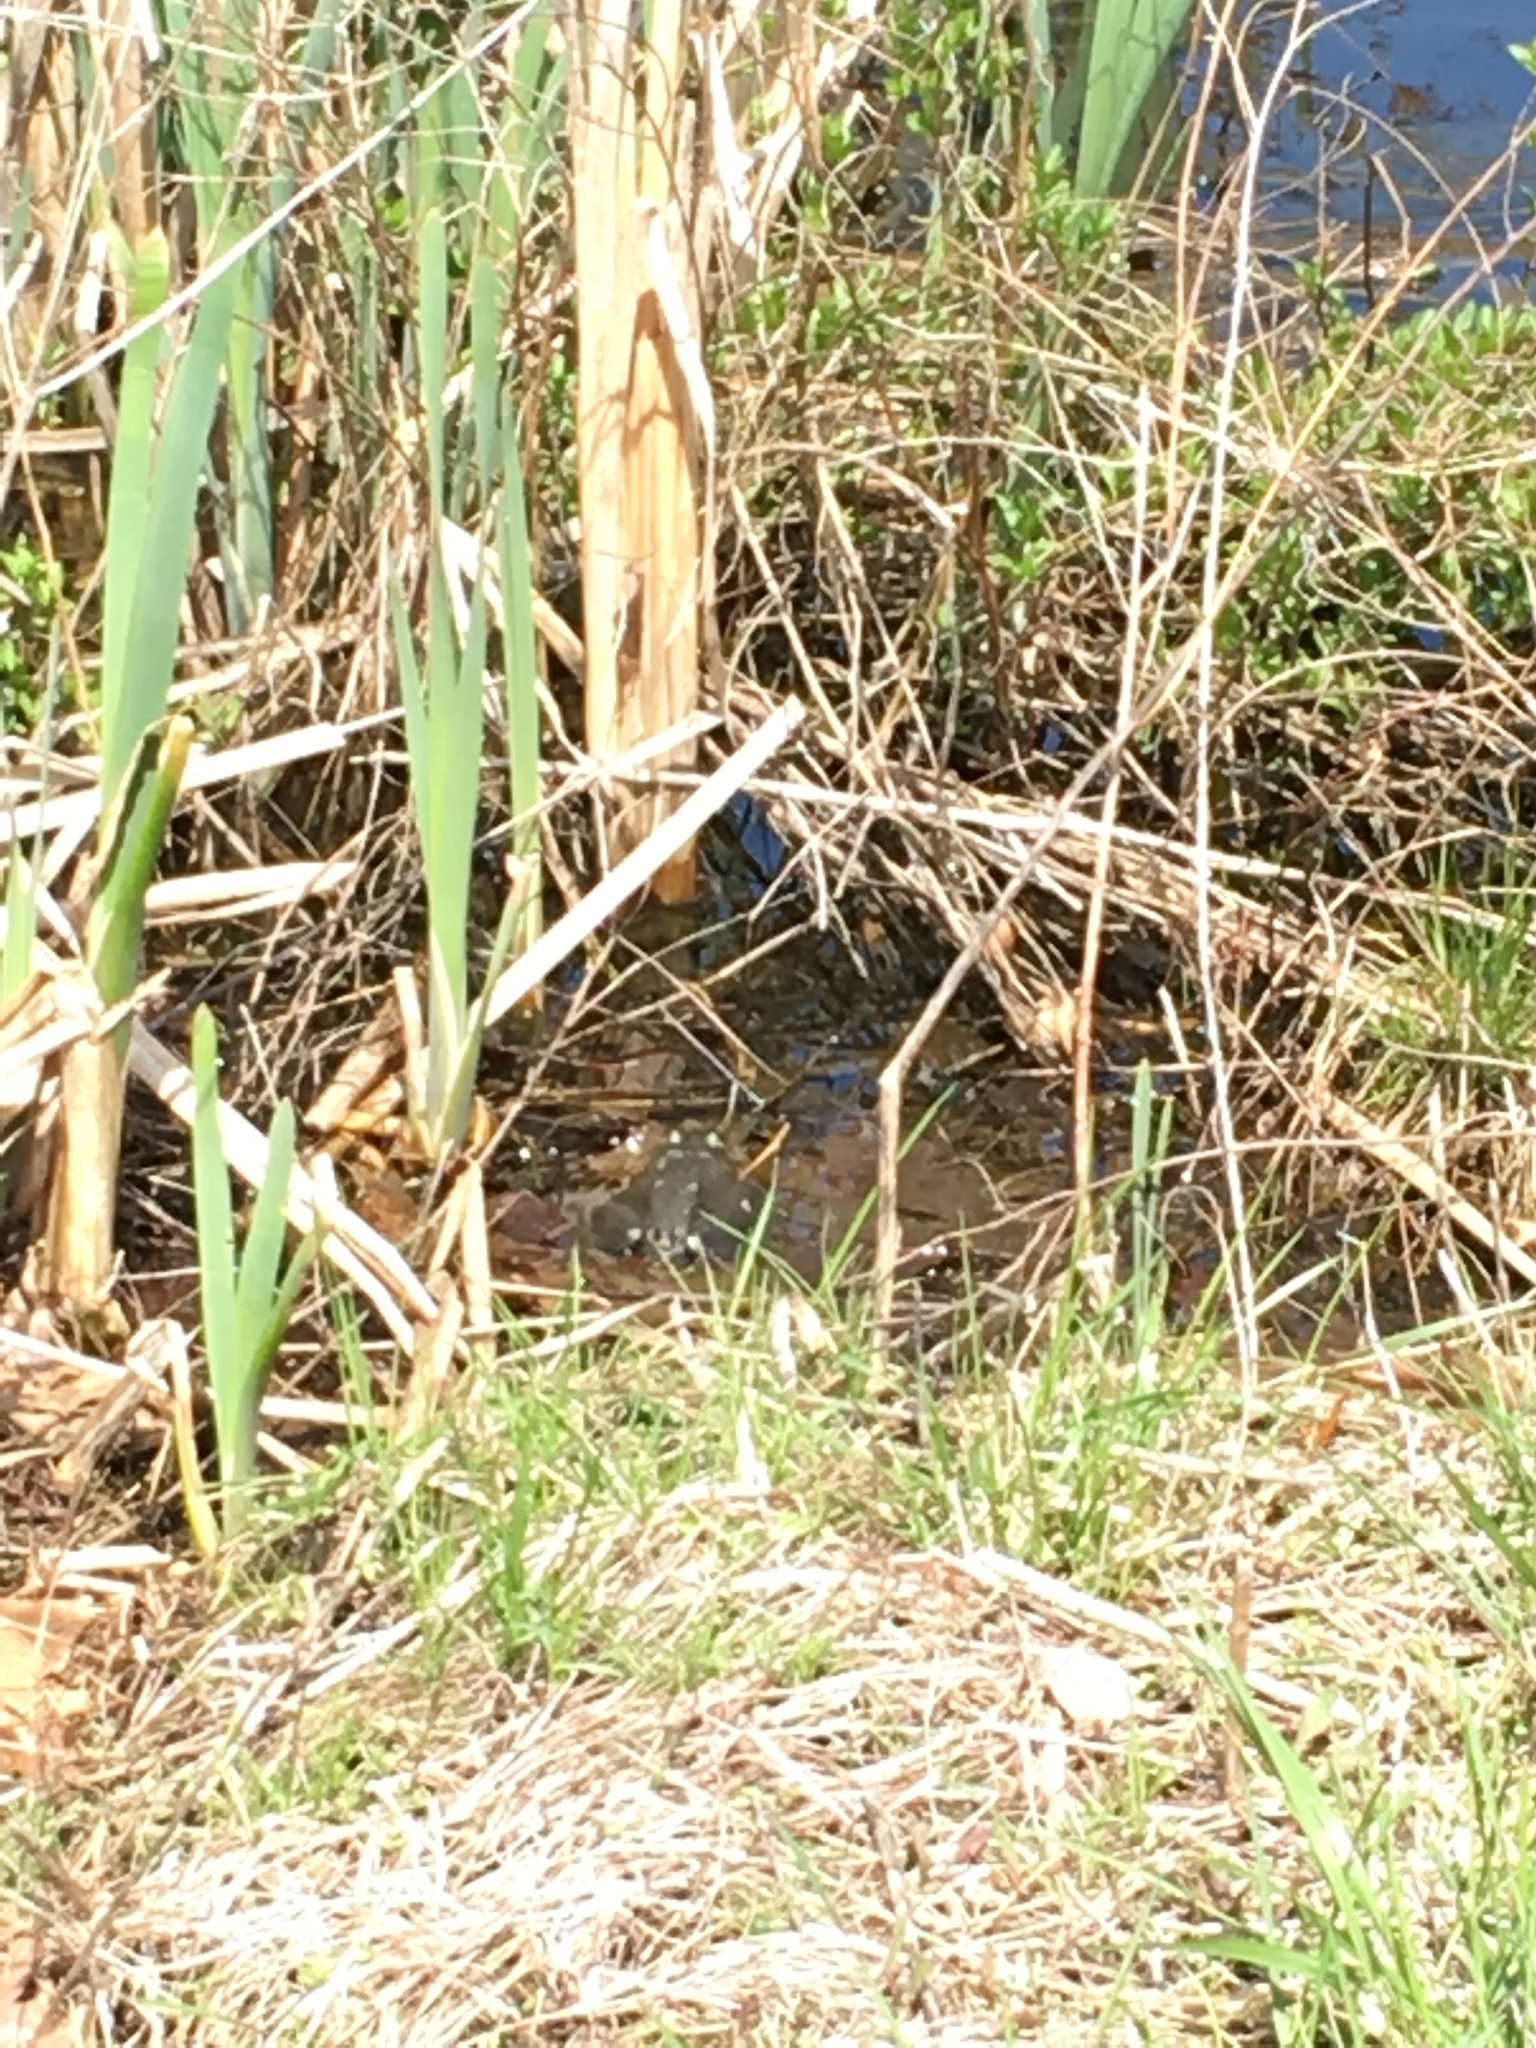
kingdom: Animalia
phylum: Chordata
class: Amphibia
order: Anura
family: Ranidae
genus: Lithobates
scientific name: Lithobates catesbeianus
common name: American bullfrog
